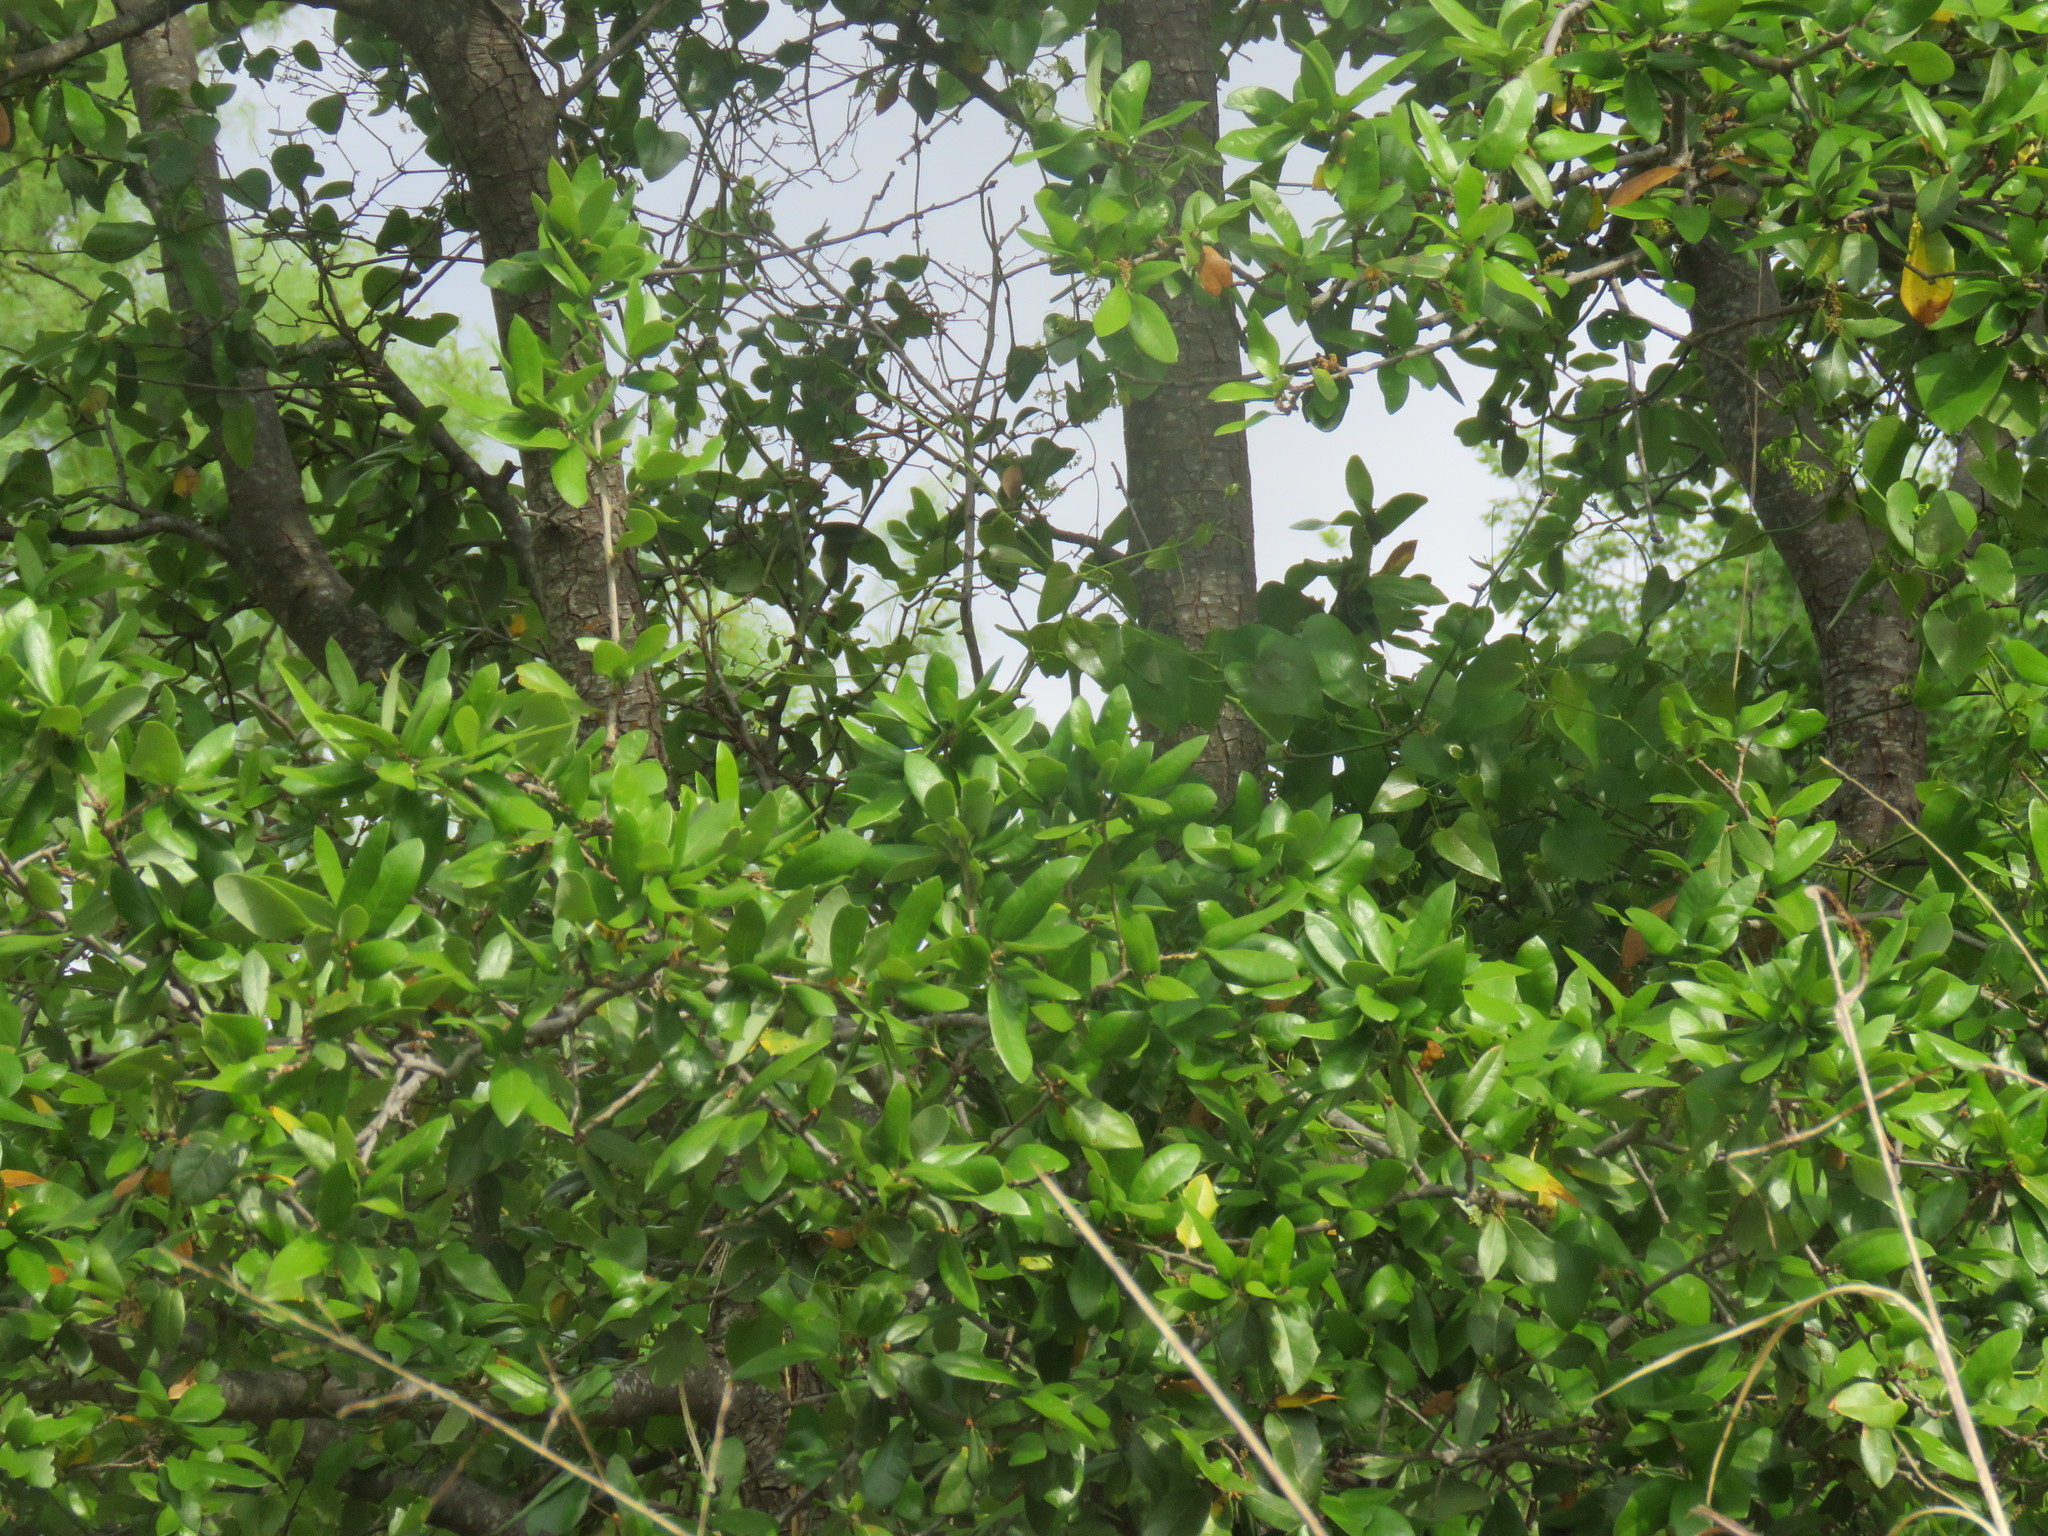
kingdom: Plantae
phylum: Tracheophyta
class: Magnoliopsida
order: Fagales
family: Fagaceae
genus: Quercus
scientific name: Quercus fusiformis
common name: Texas live oak
